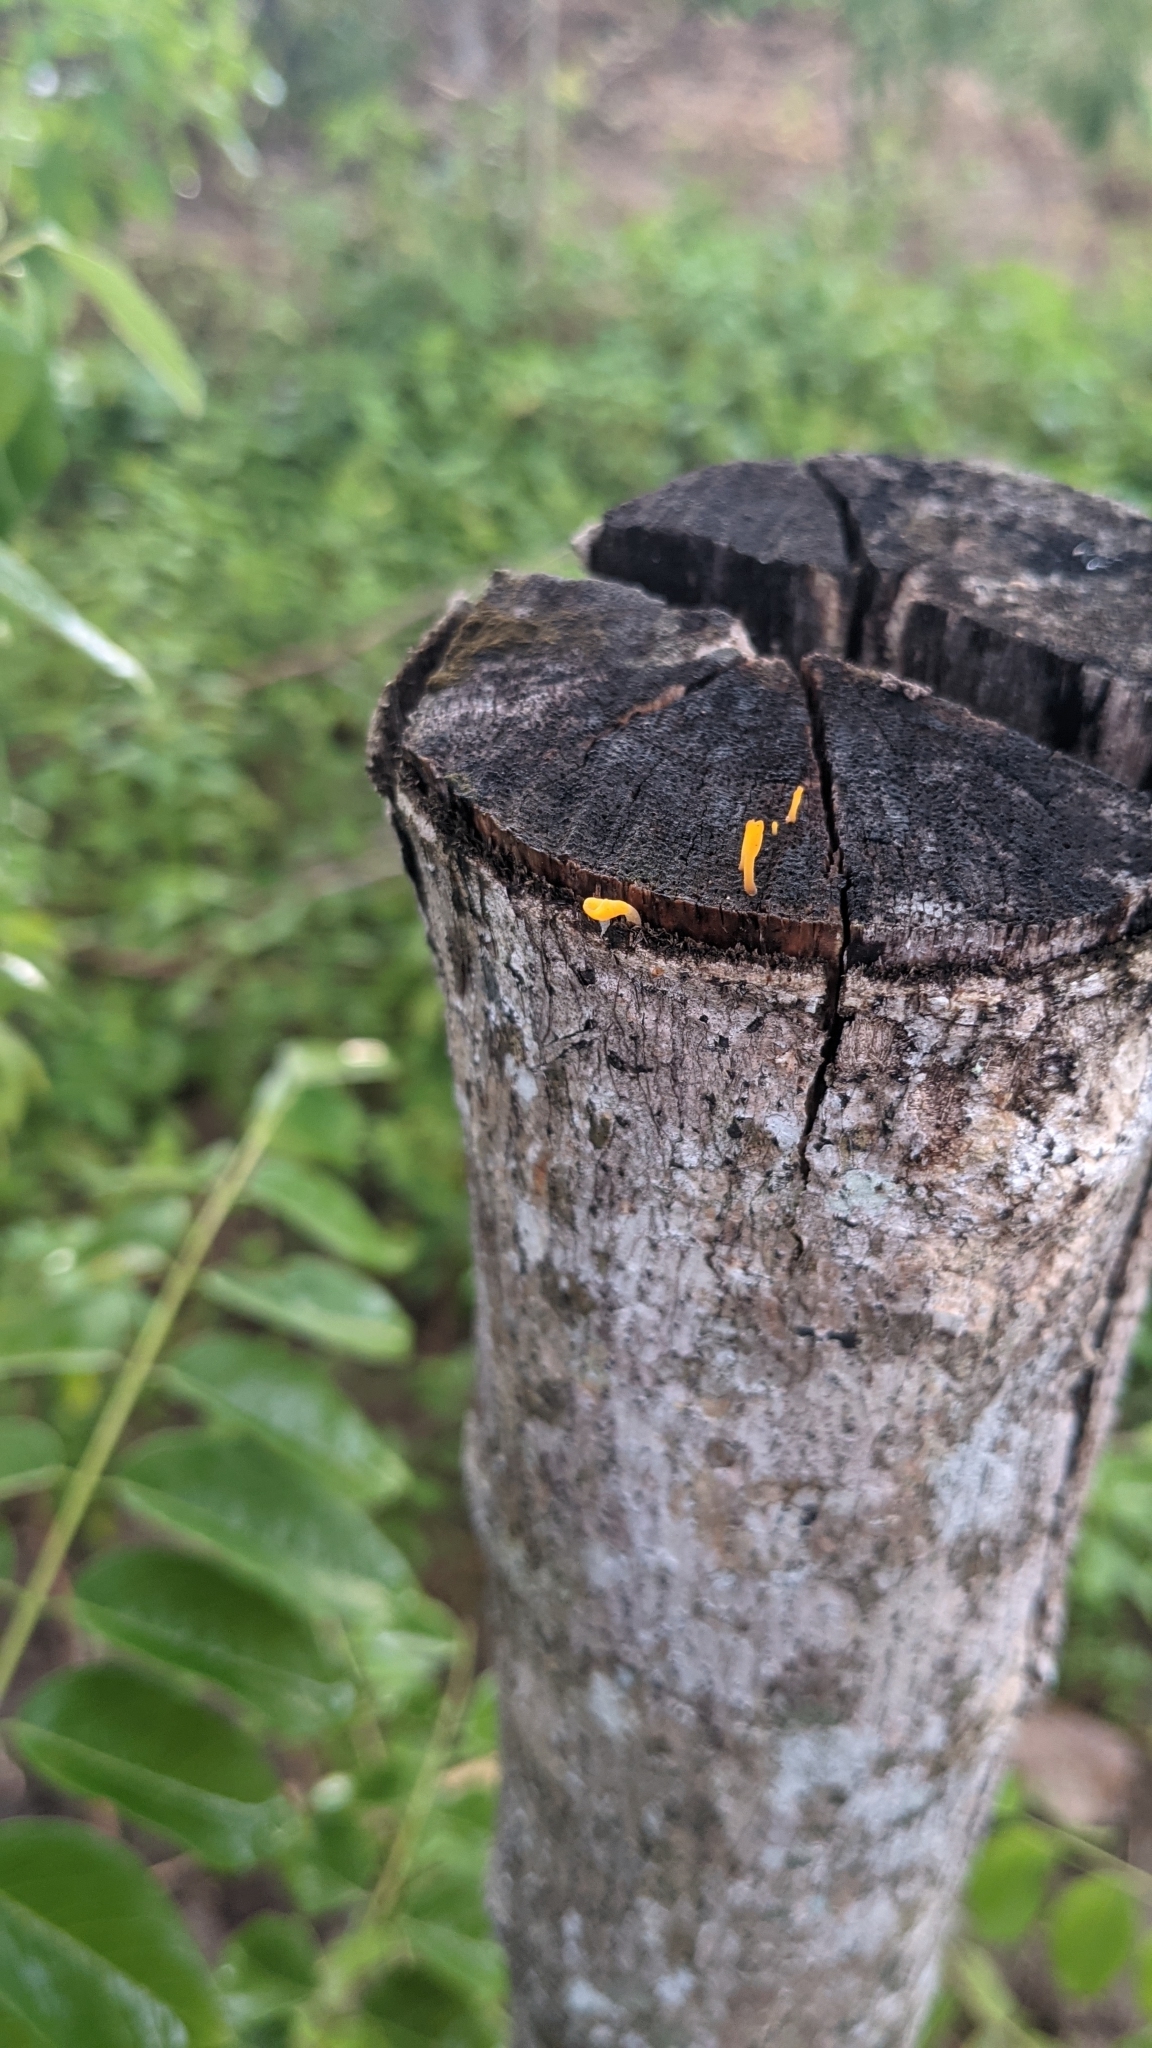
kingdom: Fungi
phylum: Basidiomycota
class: Dacrymycetes
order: Dacrymycetales
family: Dacrymycetaceae
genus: Dacrymyces
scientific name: Dacrymyces spathularius
